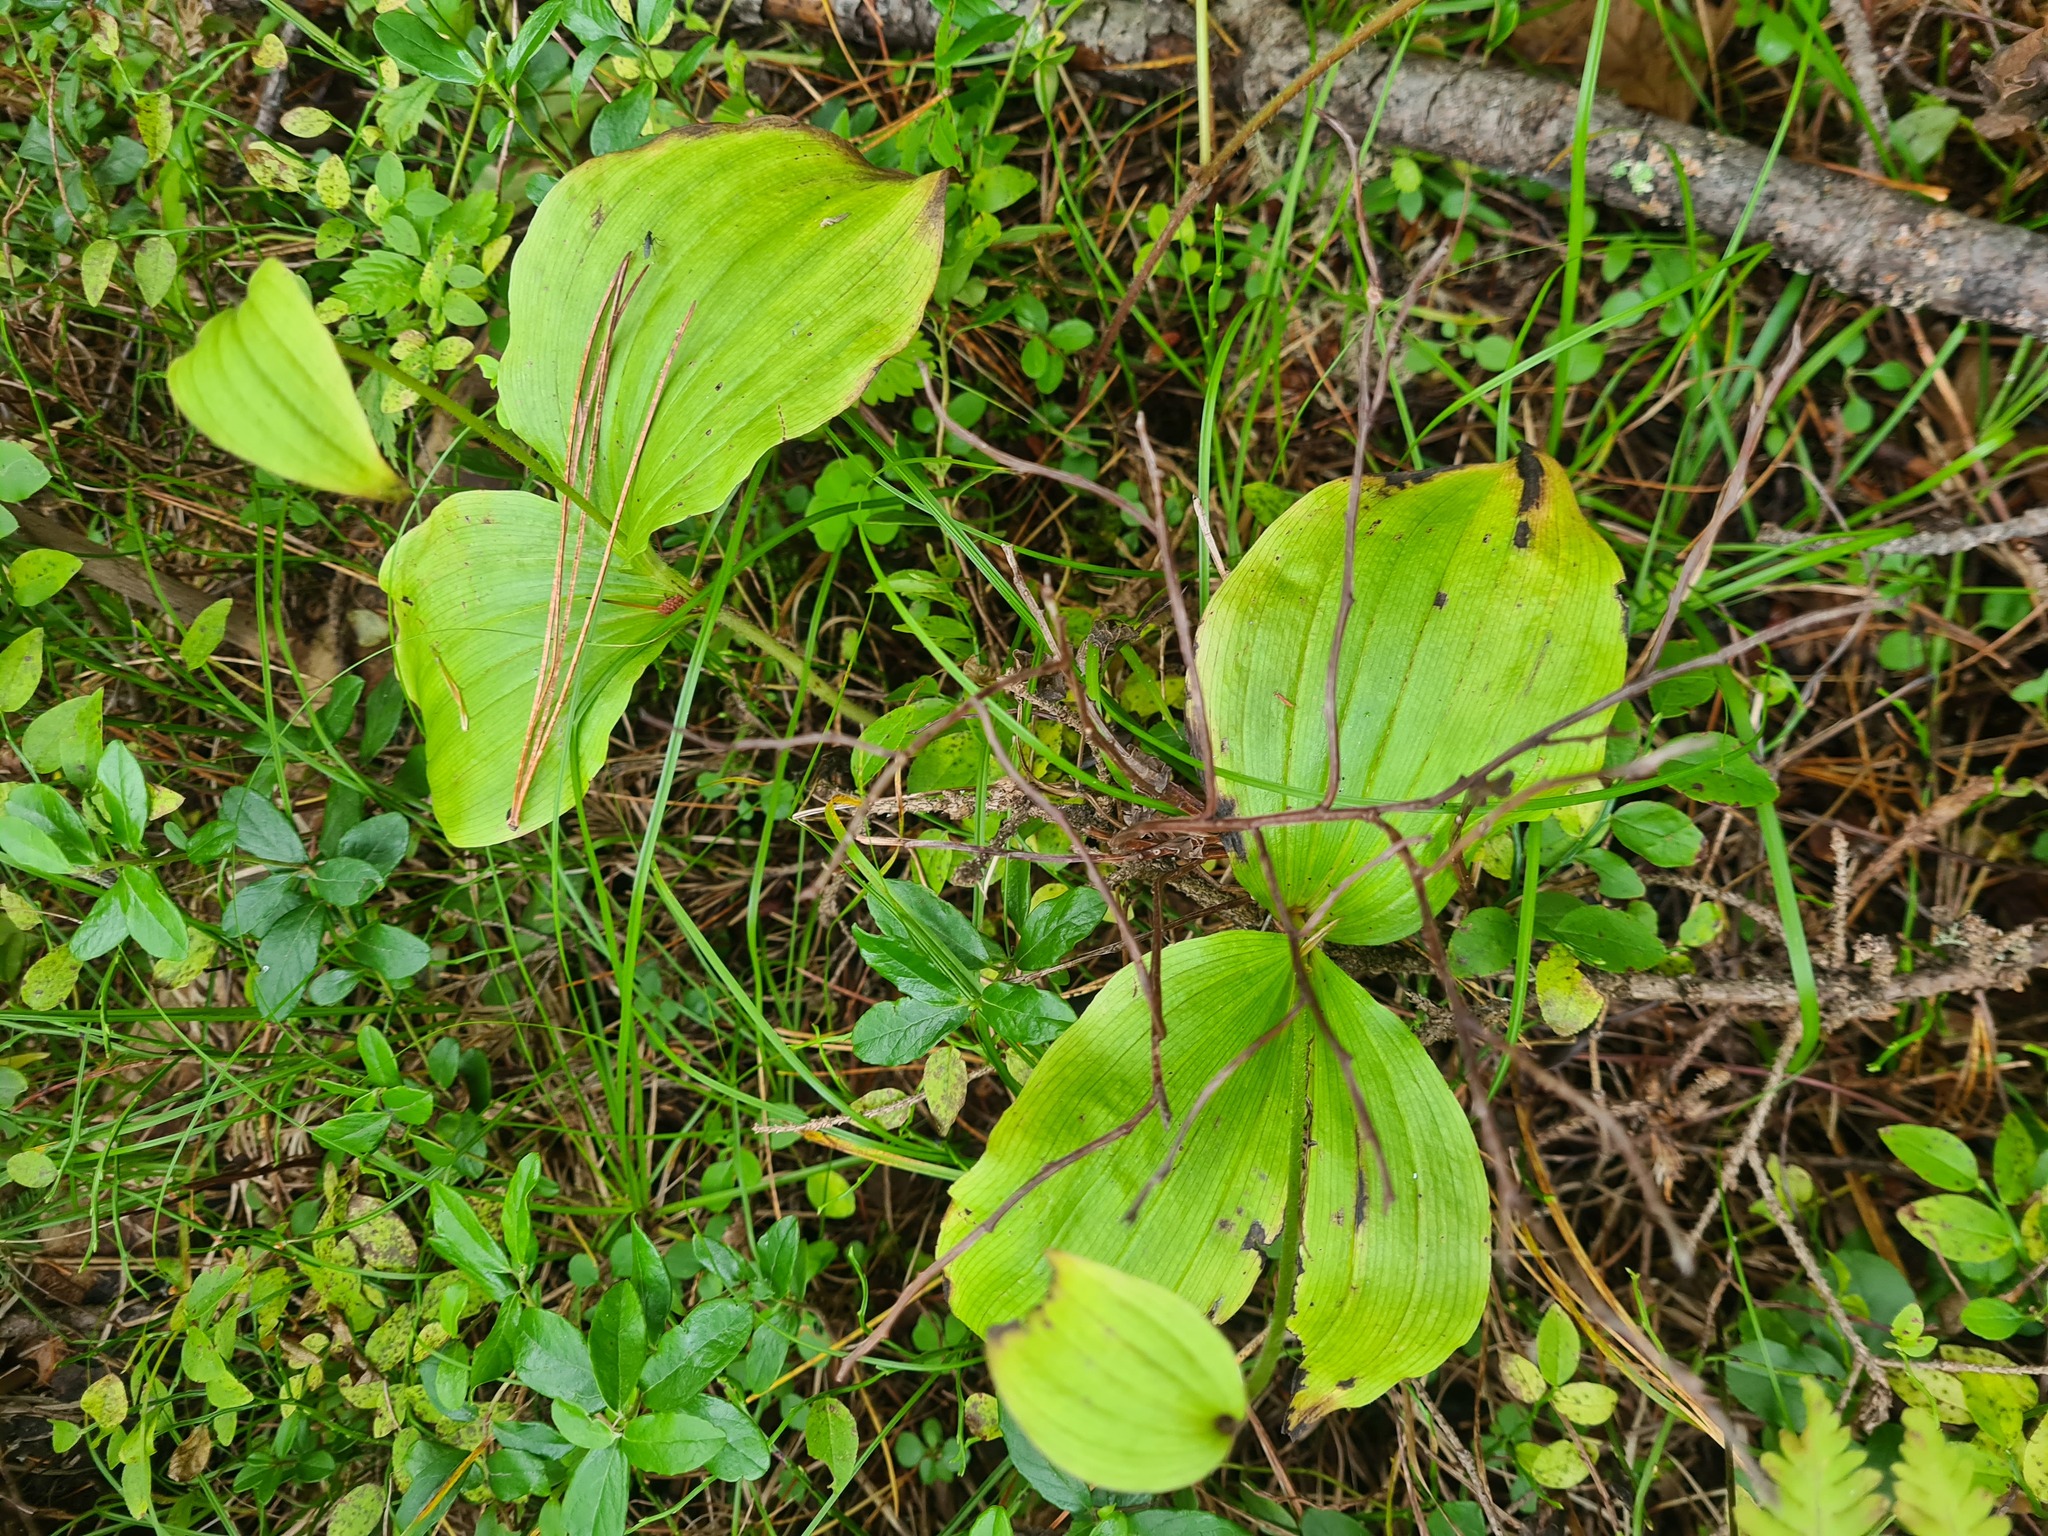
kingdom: Plantae
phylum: Tracheophyta
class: Liliopsida
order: Asparagales
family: Orchidaceae
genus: Cypripedium
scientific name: Cypripedium guttatum
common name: Pink lady slipper
